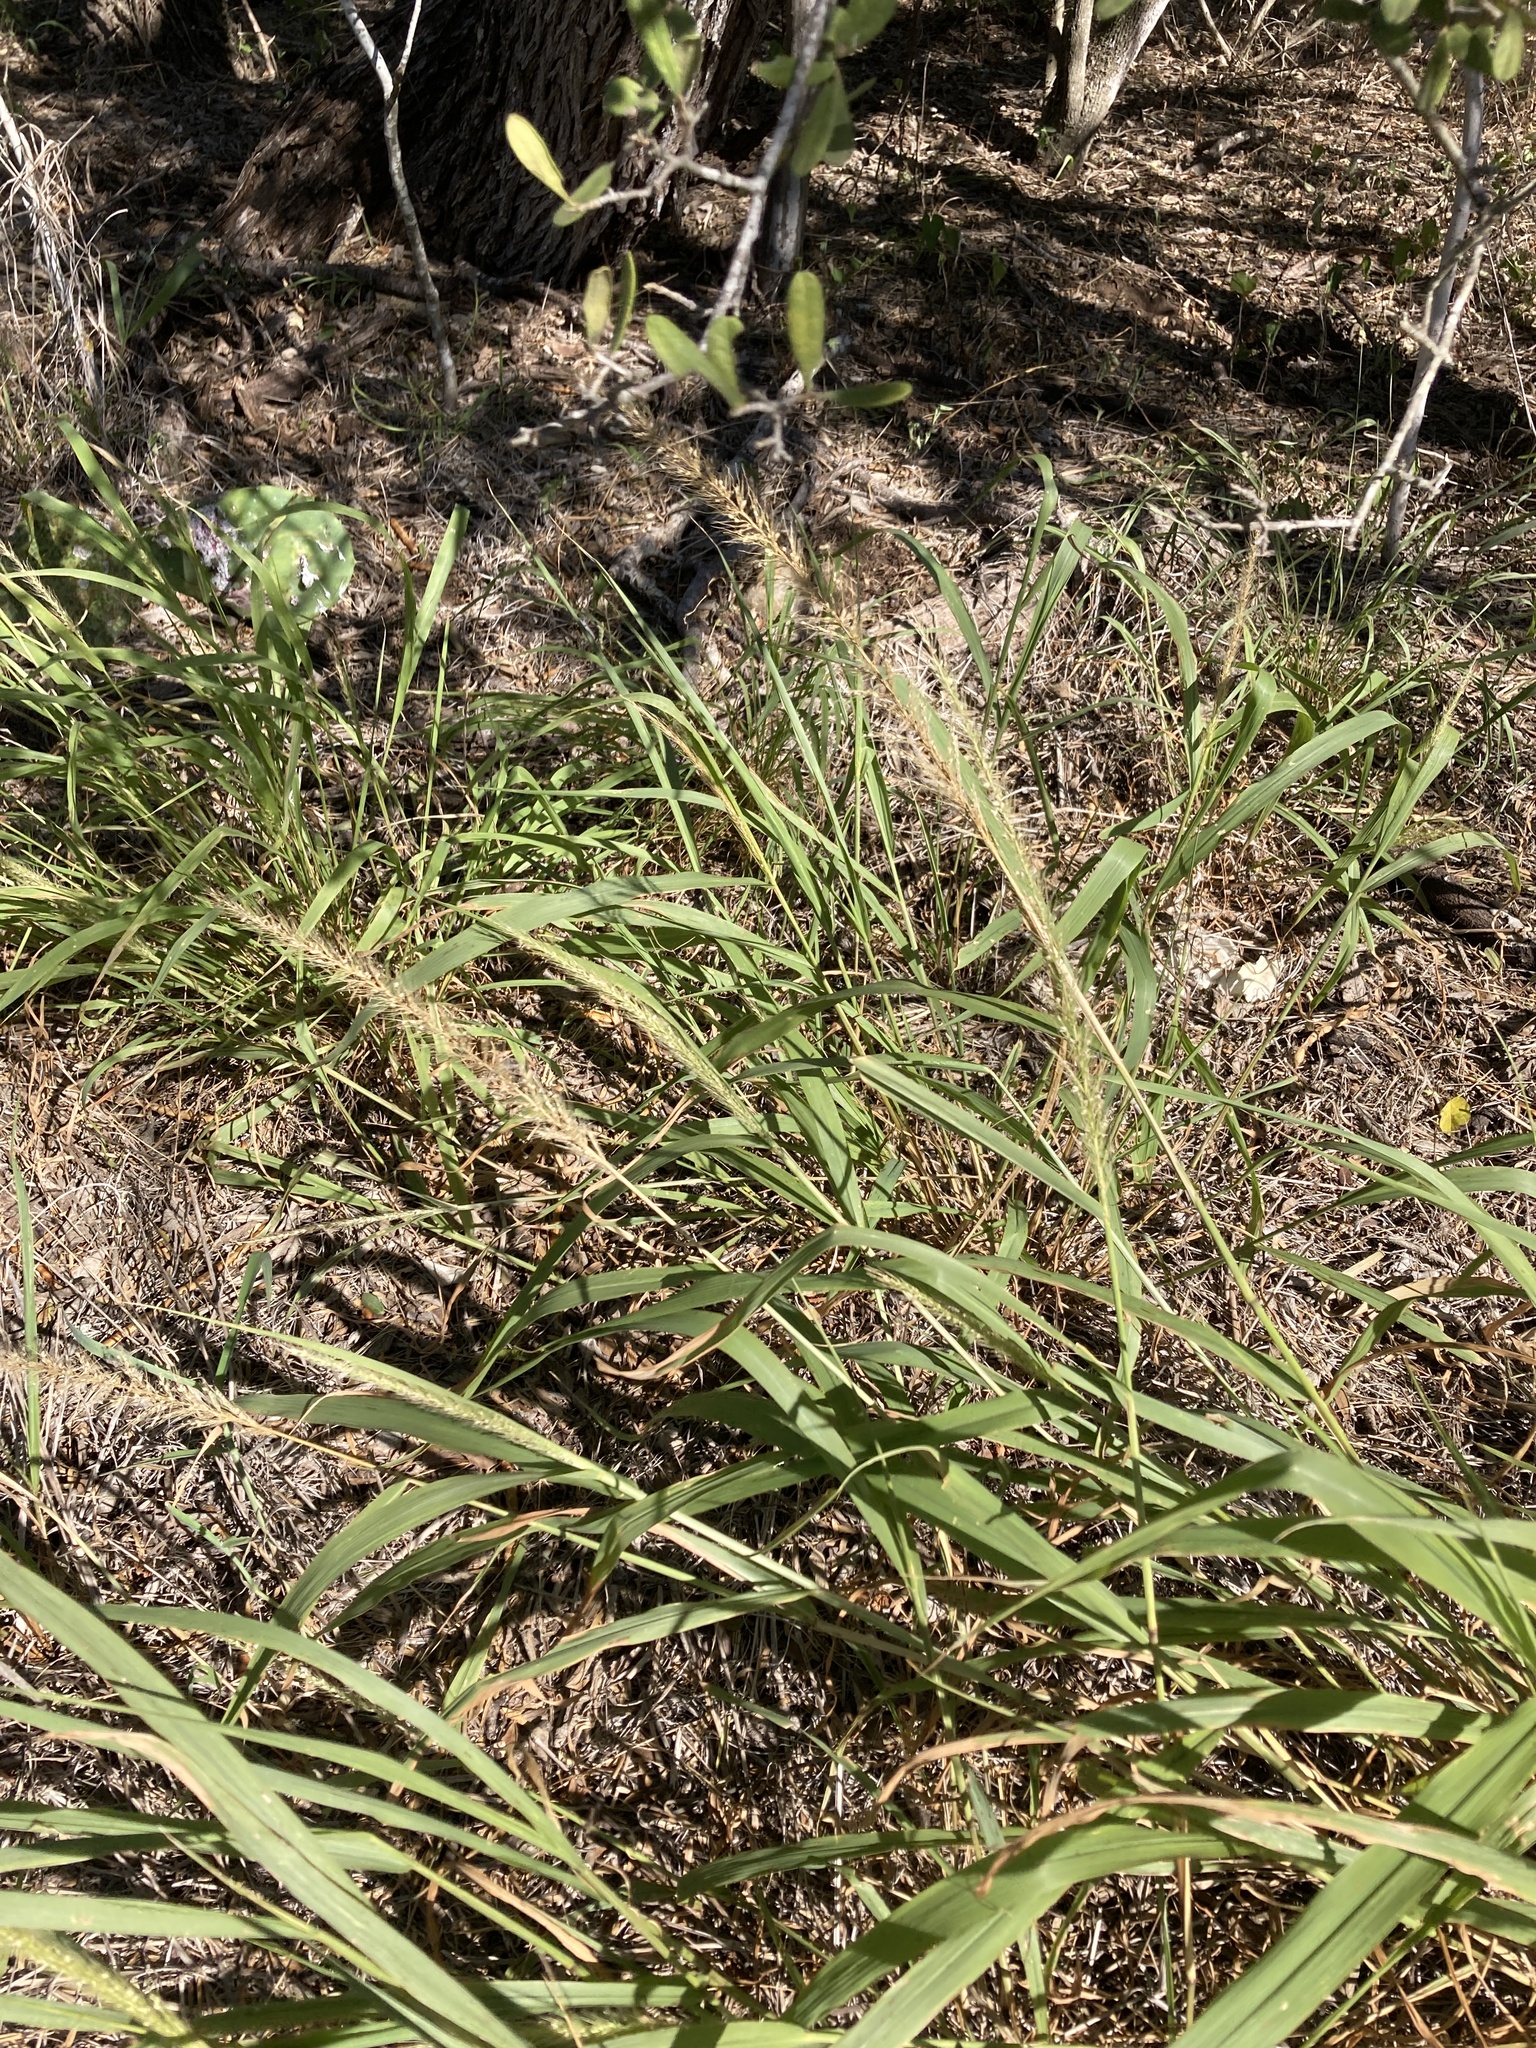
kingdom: Plantae
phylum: Tracheophyta
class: Liliopsida
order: Poales
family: Poaceae
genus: Setaria
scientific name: Setaria scheelei
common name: Southwestern bristle grass
